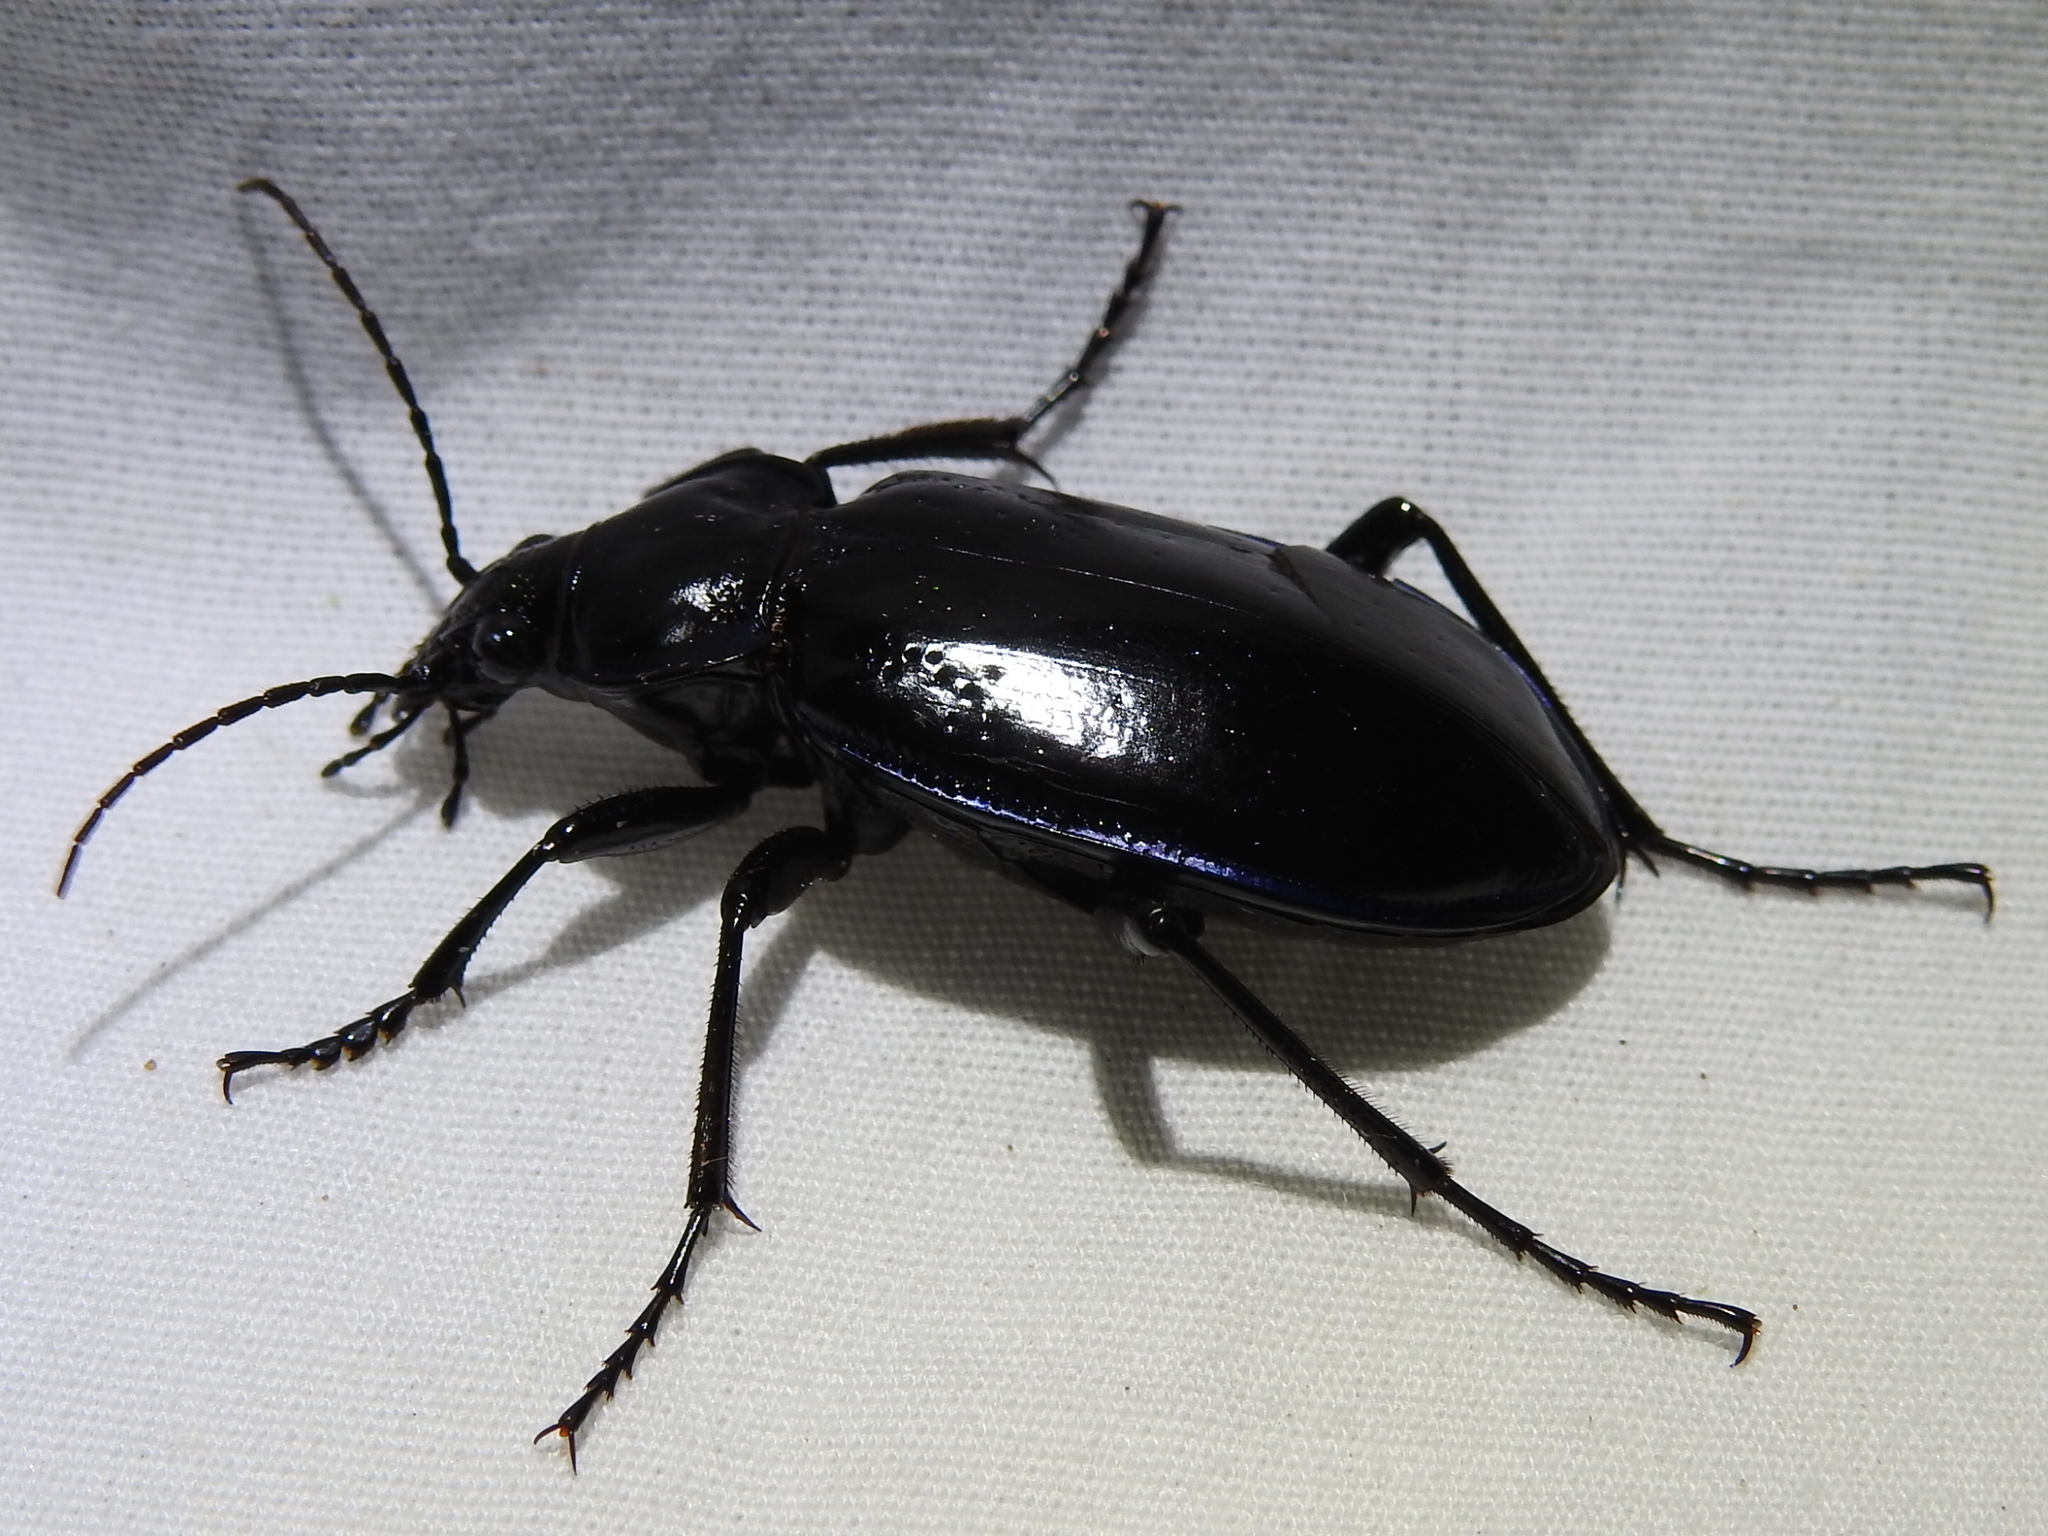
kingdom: Animalia
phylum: Arthropoda
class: Insecta
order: Coleoptera
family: Carabidae
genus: Calosoma
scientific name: Calosoma macrum
